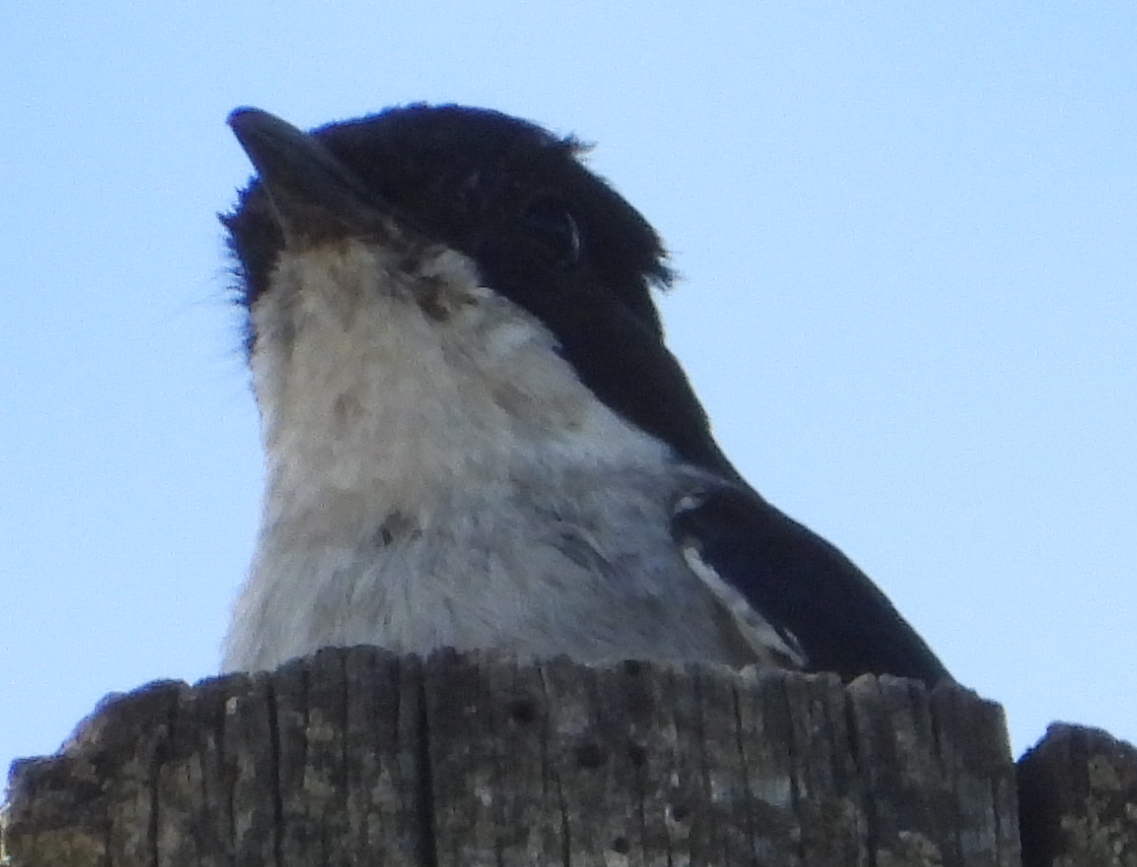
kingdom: Animalia
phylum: Chordata
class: Aves
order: Passeriformes
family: Muscicapidae
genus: Sigelus
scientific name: Sigelus silens
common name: Fiscal flycatcher
